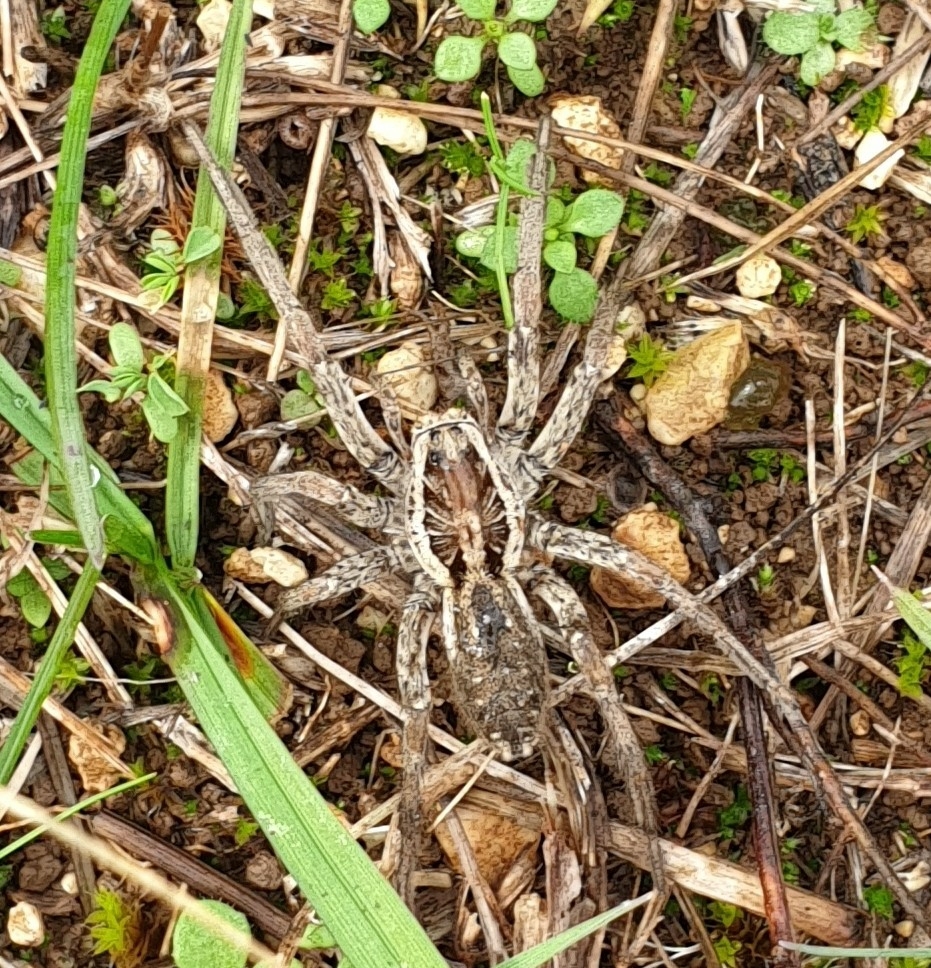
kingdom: Animalia
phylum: Arthropoda
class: Arachnida
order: Araneae
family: Lycosidae
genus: Hogna
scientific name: Hogna radiata
